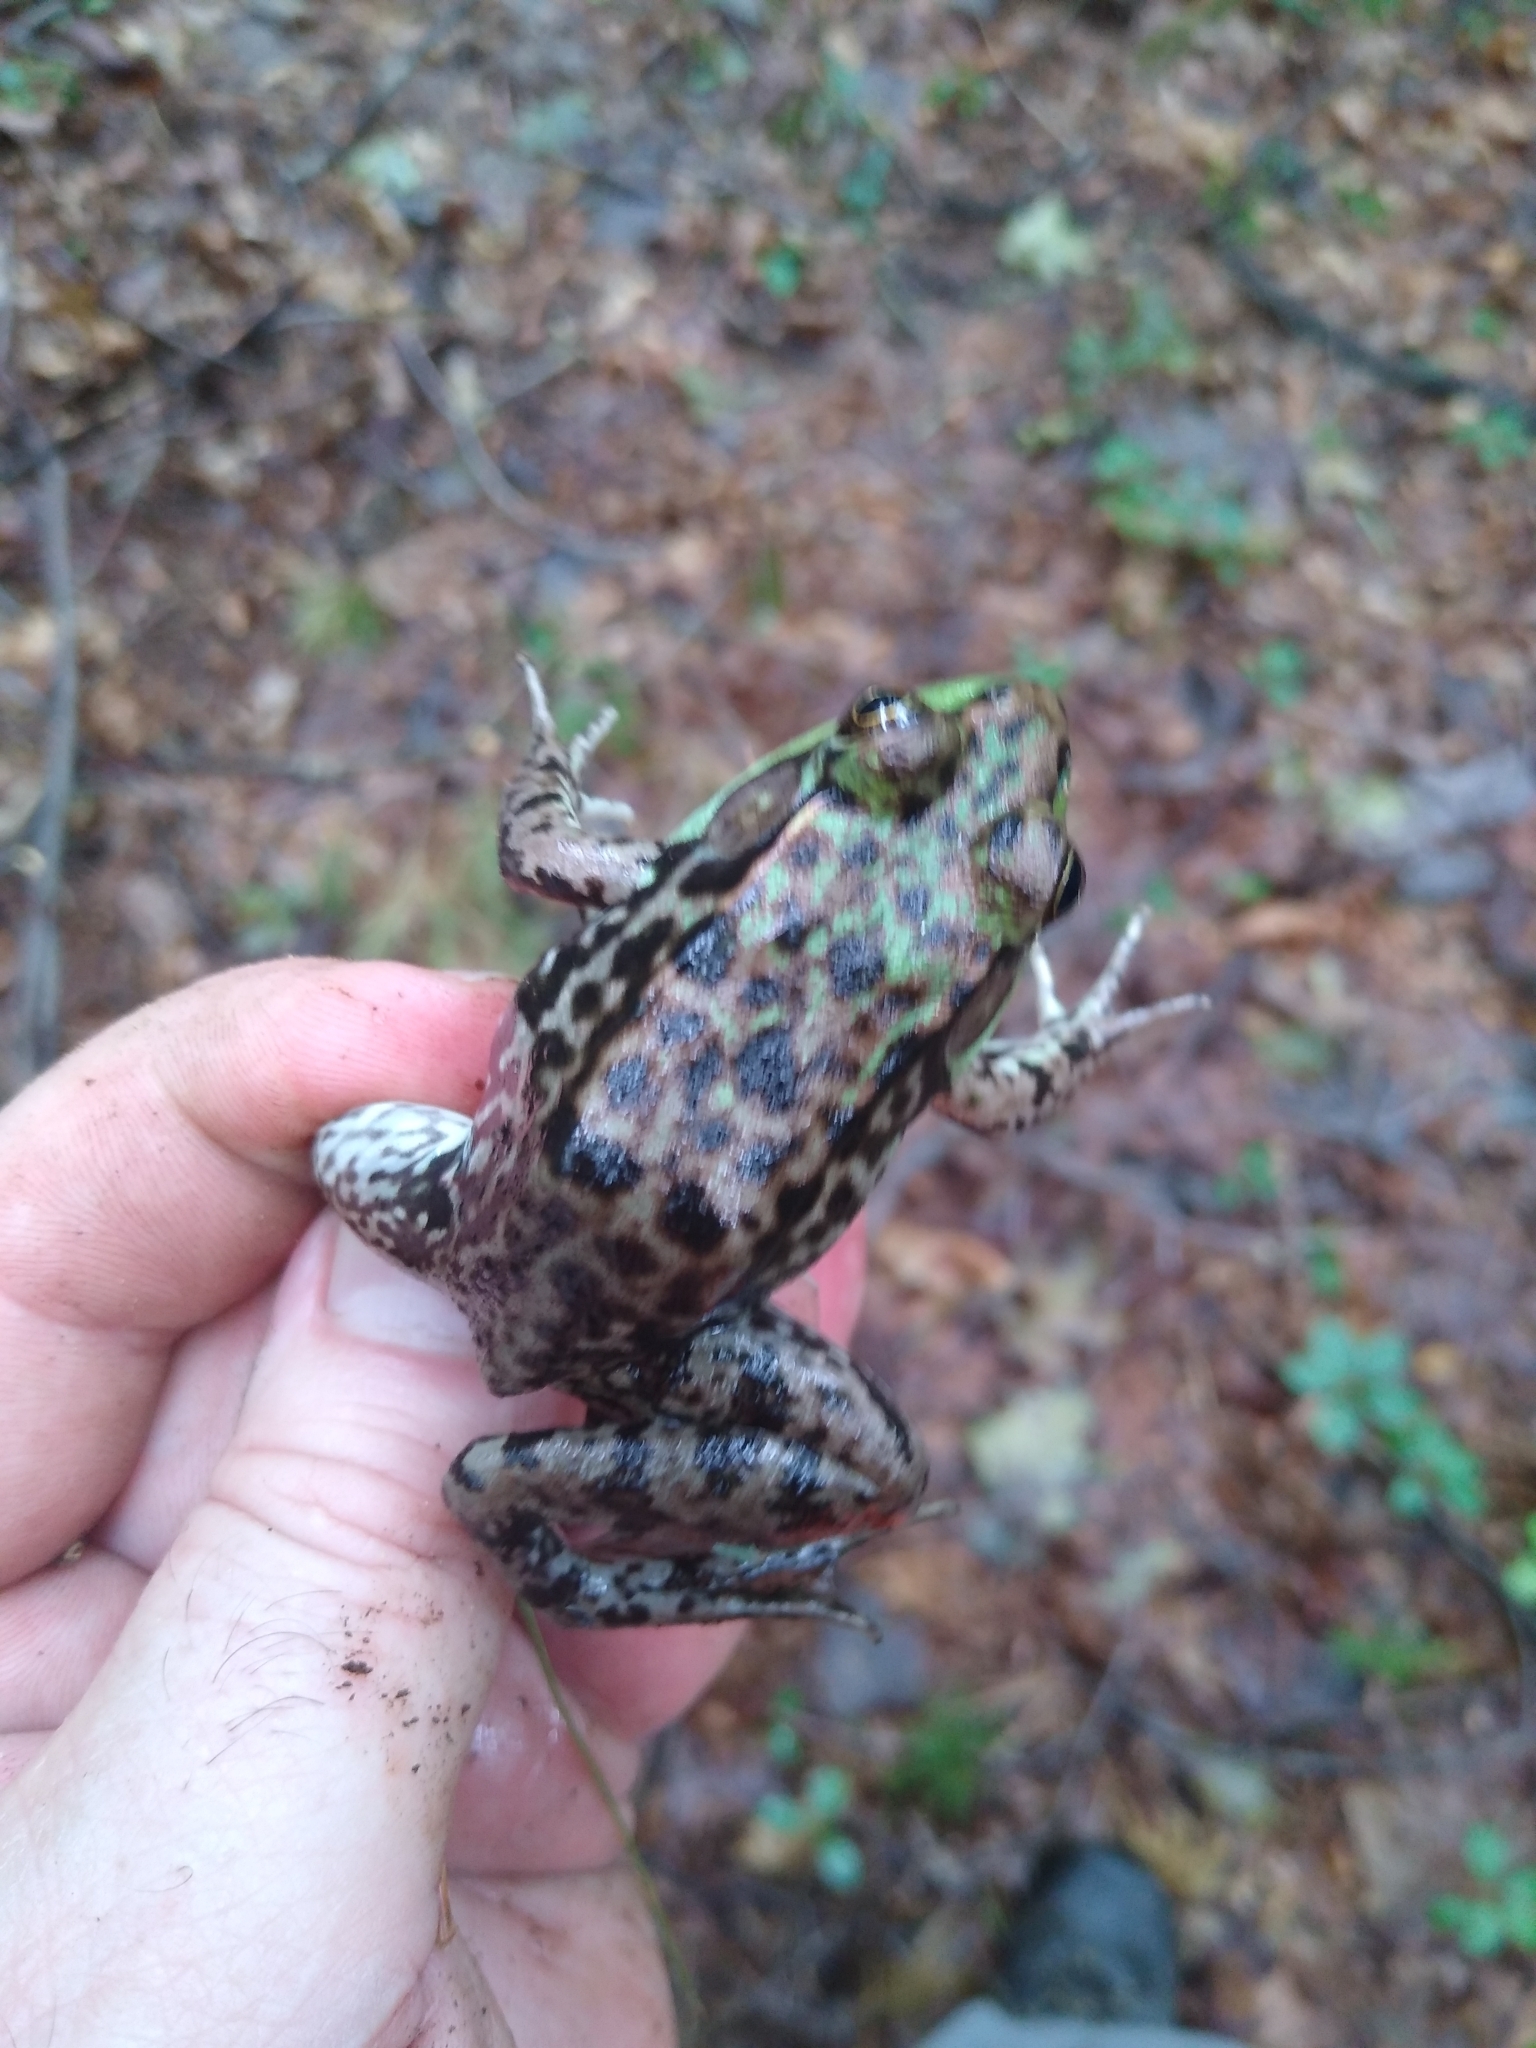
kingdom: Animalia
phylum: Chordata
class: Amphibia
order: Anura
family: Ranidae
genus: Lithobates
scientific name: Lithobates clamitans
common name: Green frog
